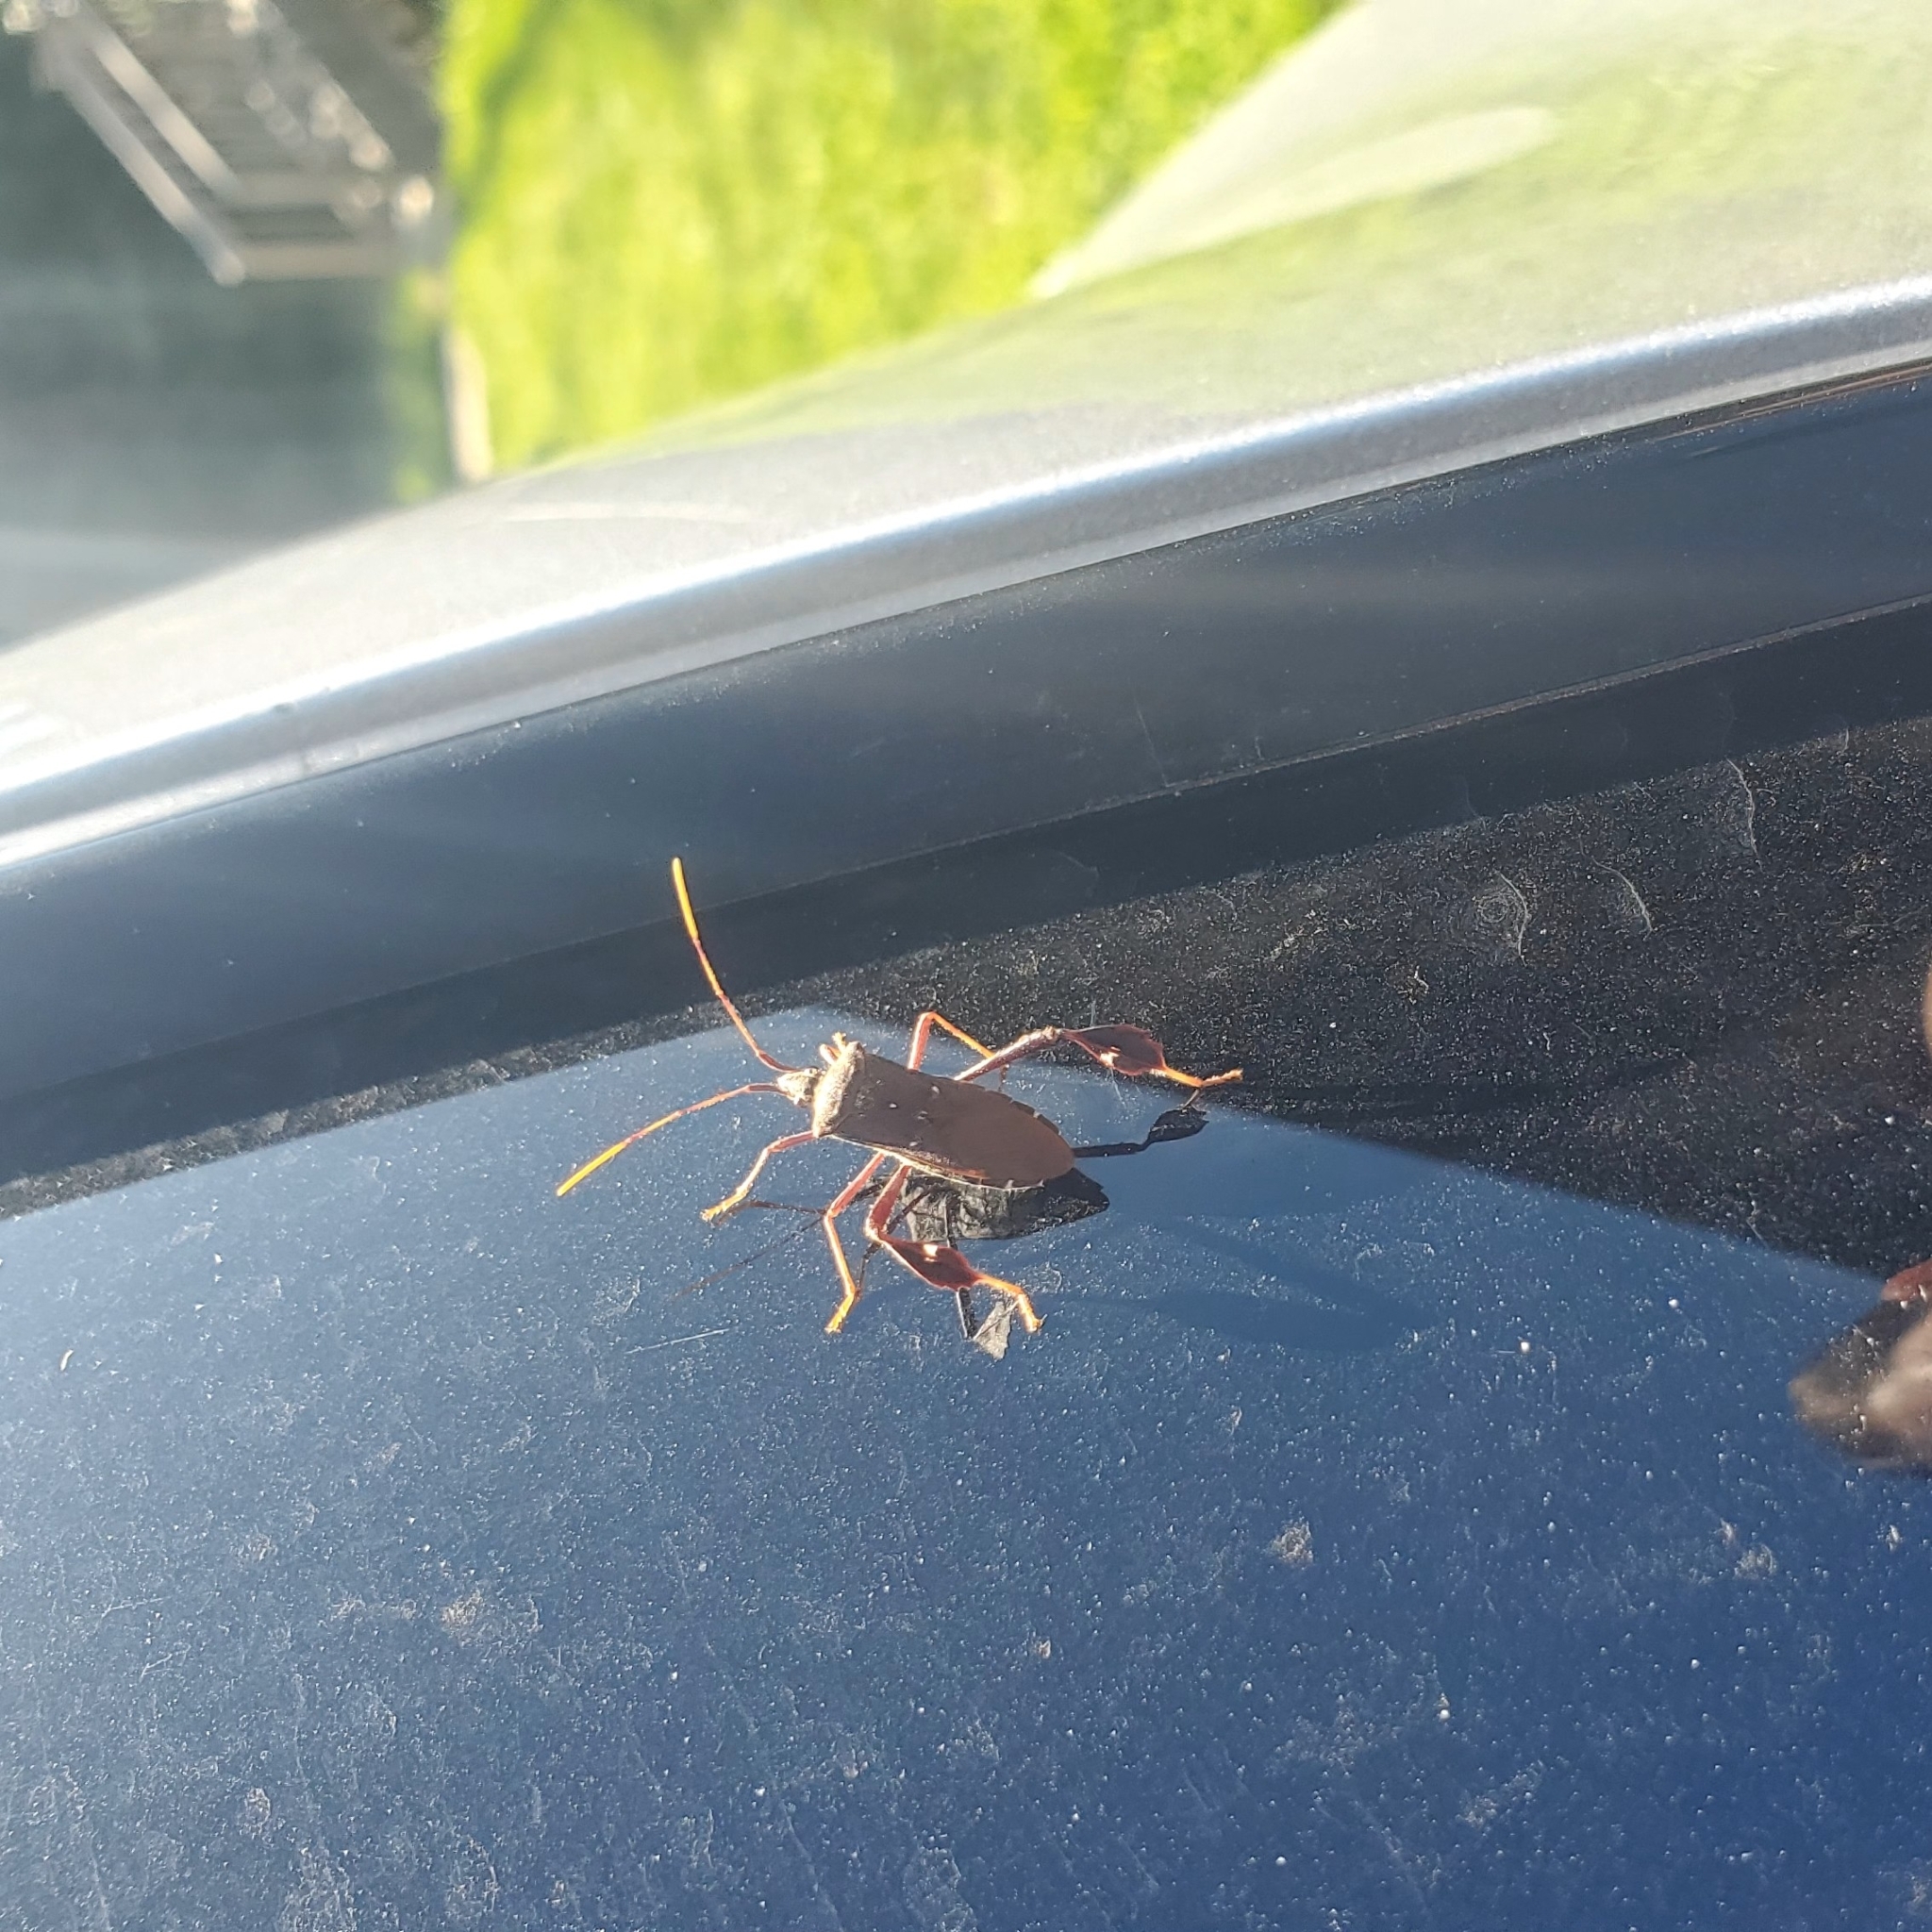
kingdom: Animalia
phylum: Arthropoda
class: Insecta
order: Hemiptera
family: Coreidae
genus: Leptoglossus
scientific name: Leptoglossus oppositus
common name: Northern leaf-footed bug
